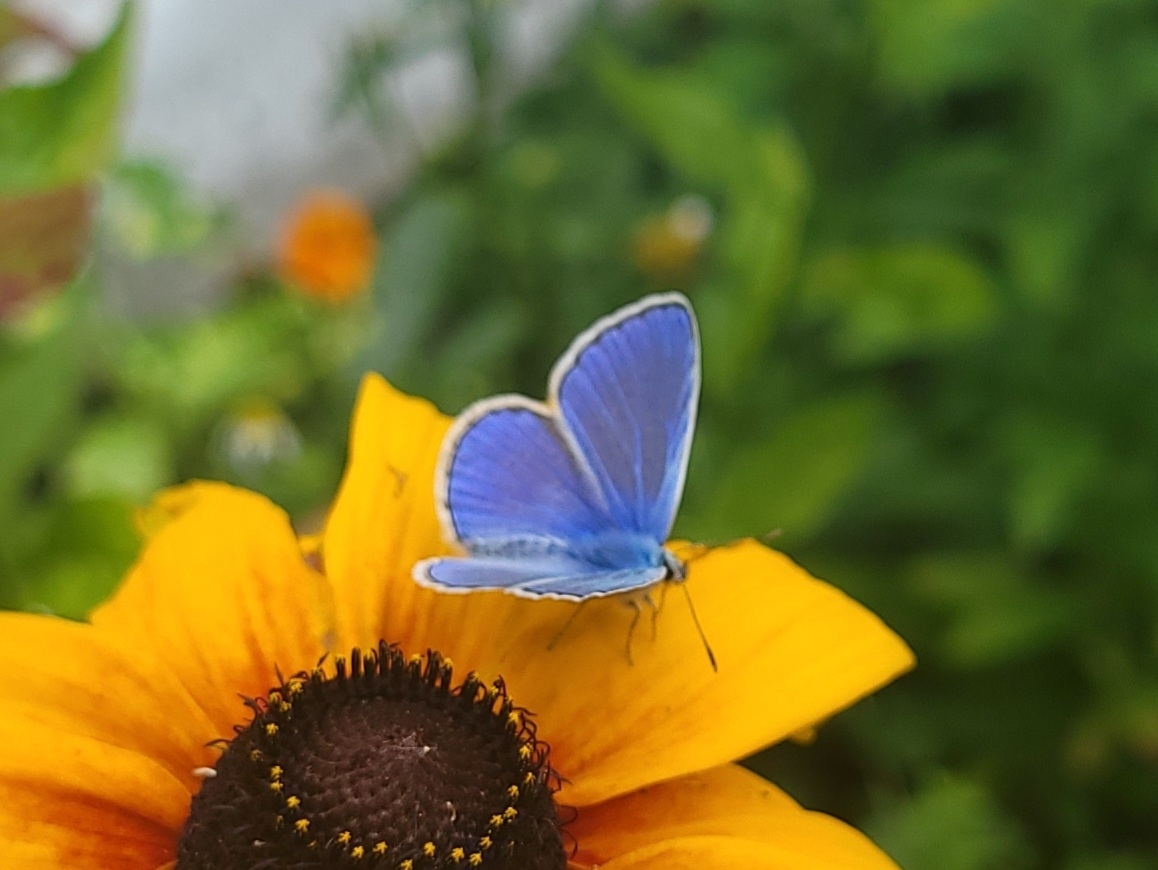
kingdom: Animalia
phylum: Arthropoda
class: Insecta
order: Lepidoptera
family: Lycaenidae
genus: Polyommatus
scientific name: Polyommatus icarus
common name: Common blue
